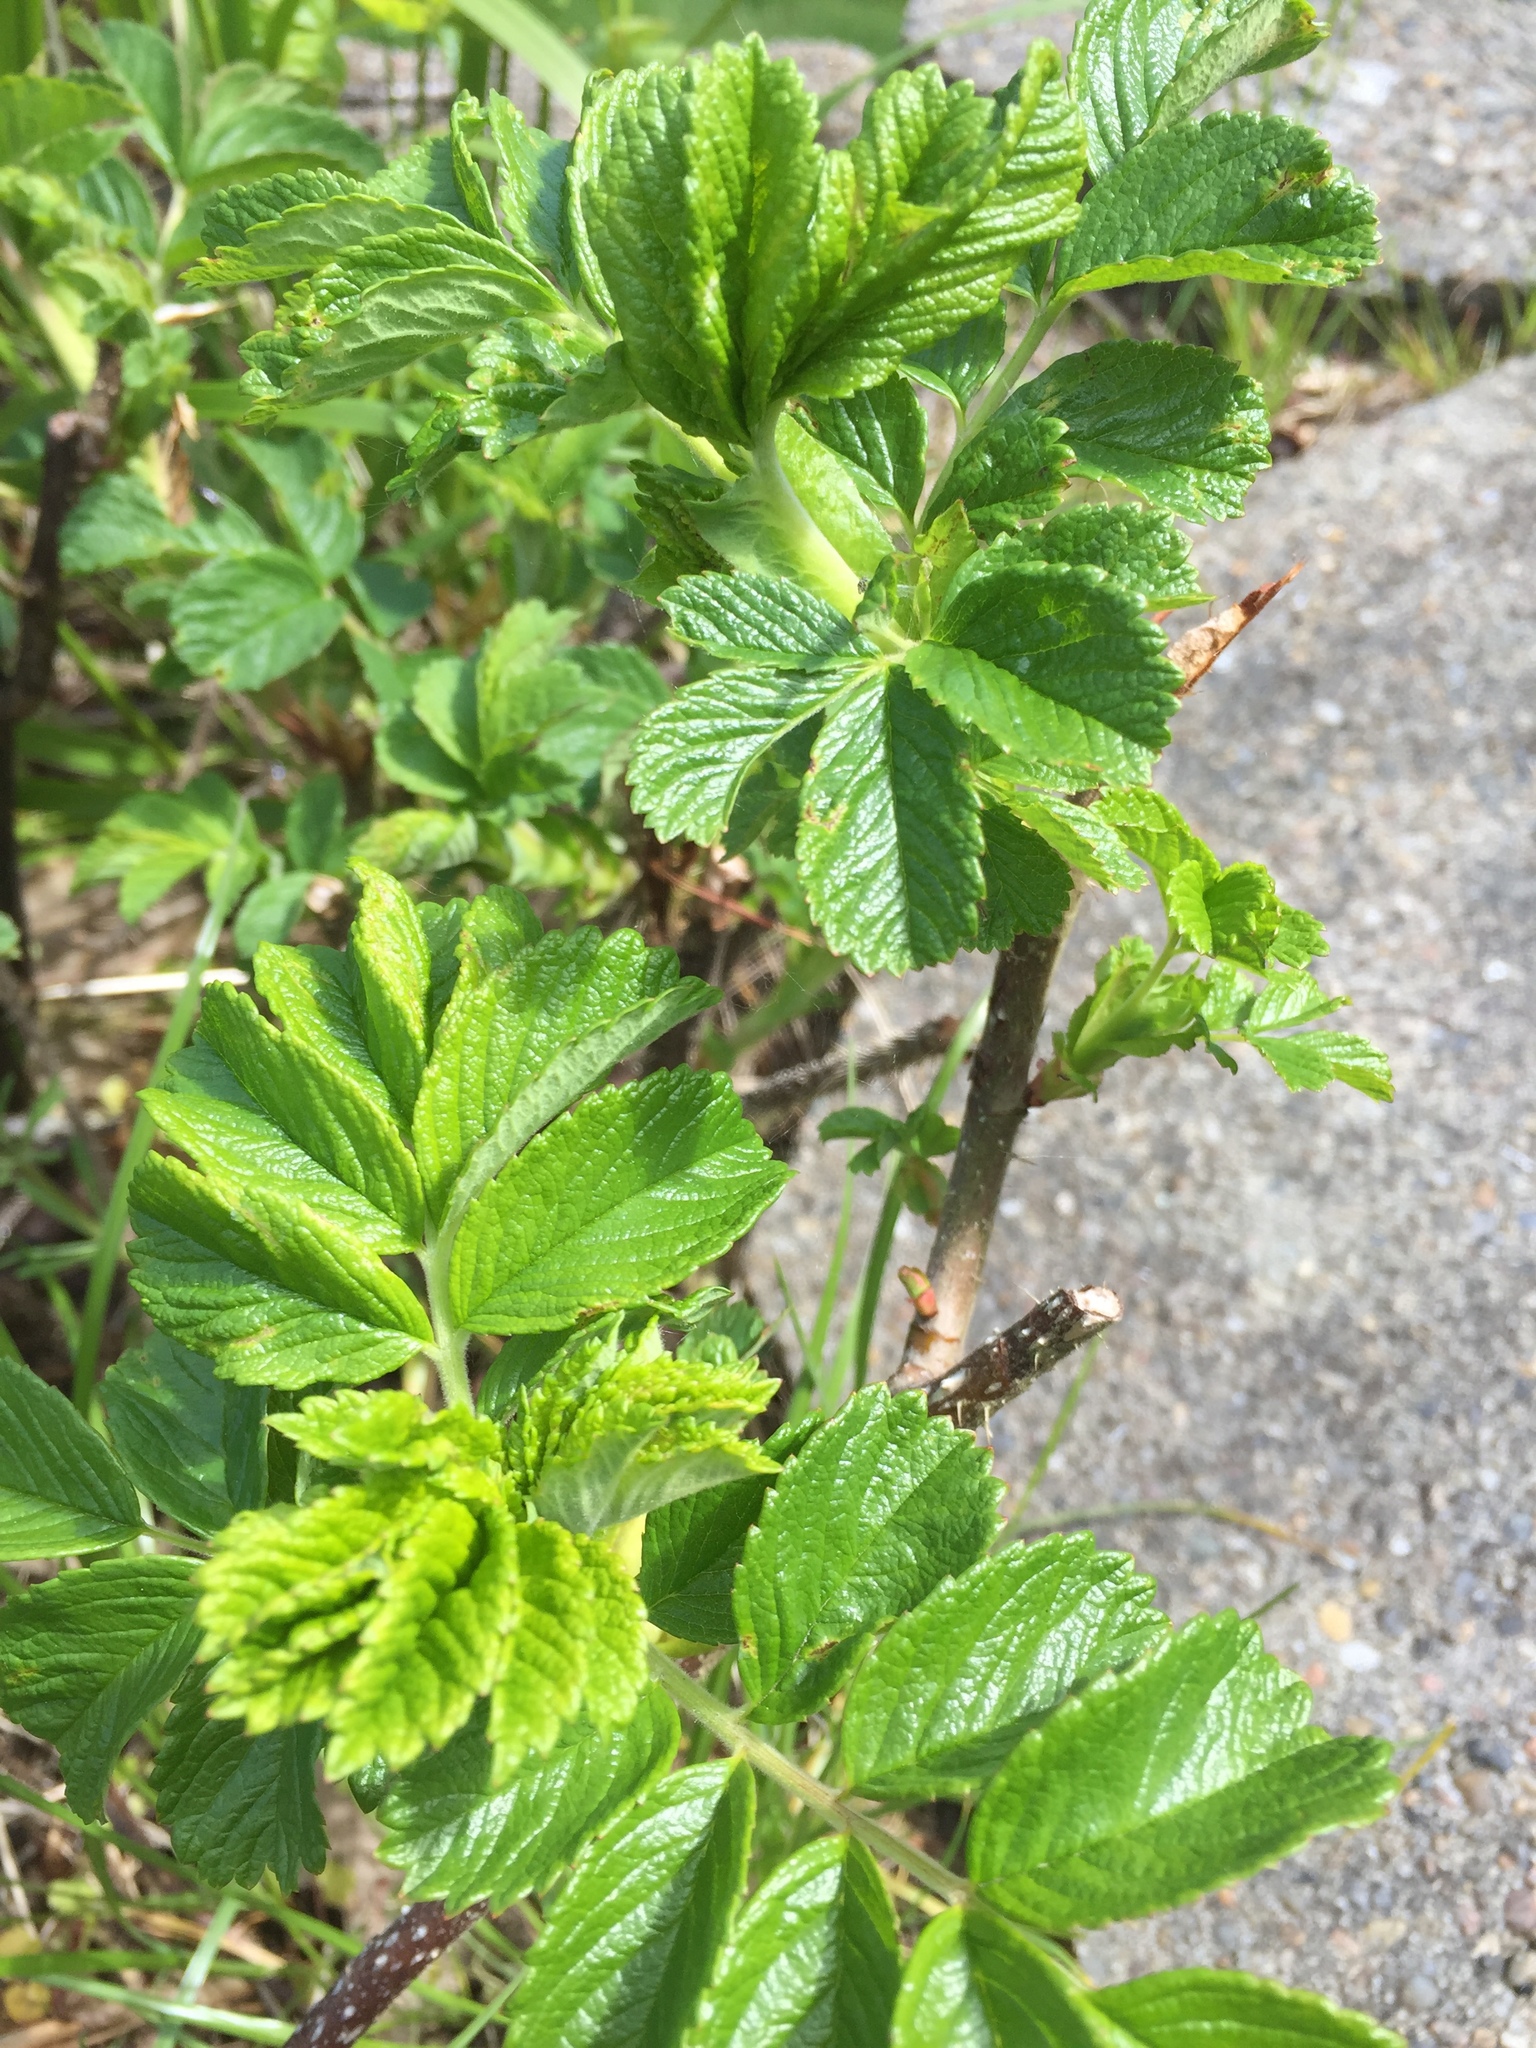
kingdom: Plantae
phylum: Tracheophyta
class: Magnoliopsida
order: Rosales
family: Rosaceae
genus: Rosa
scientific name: Rosa rugosa
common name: Japanese rose
